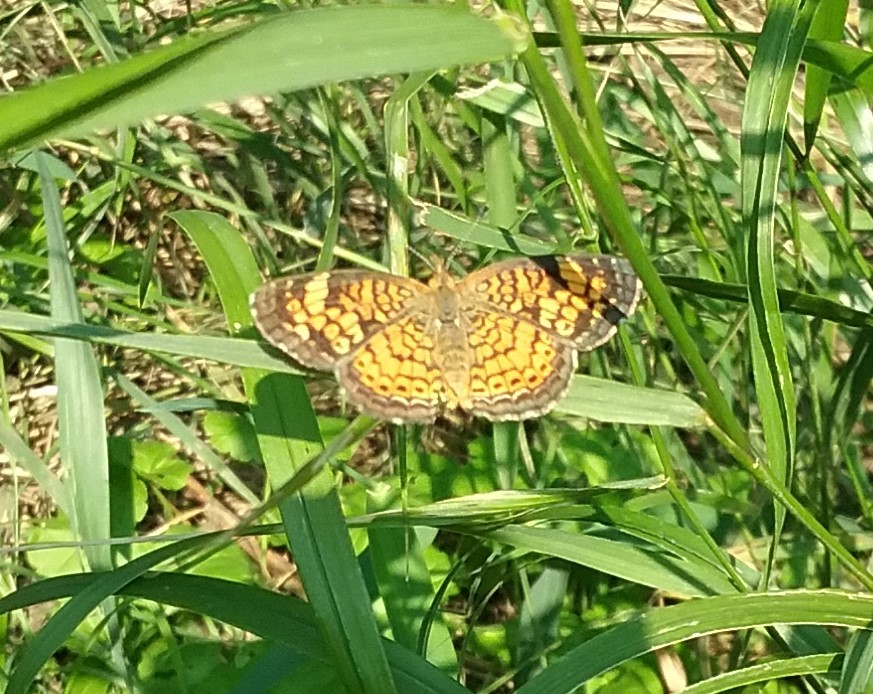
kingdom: Animalia
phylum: Arthropoda
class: Insecta
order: Lepidoptera
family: Nymphalidae
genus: Phyciodes
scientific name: Phyciodes tharos
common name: Pearl crescent
